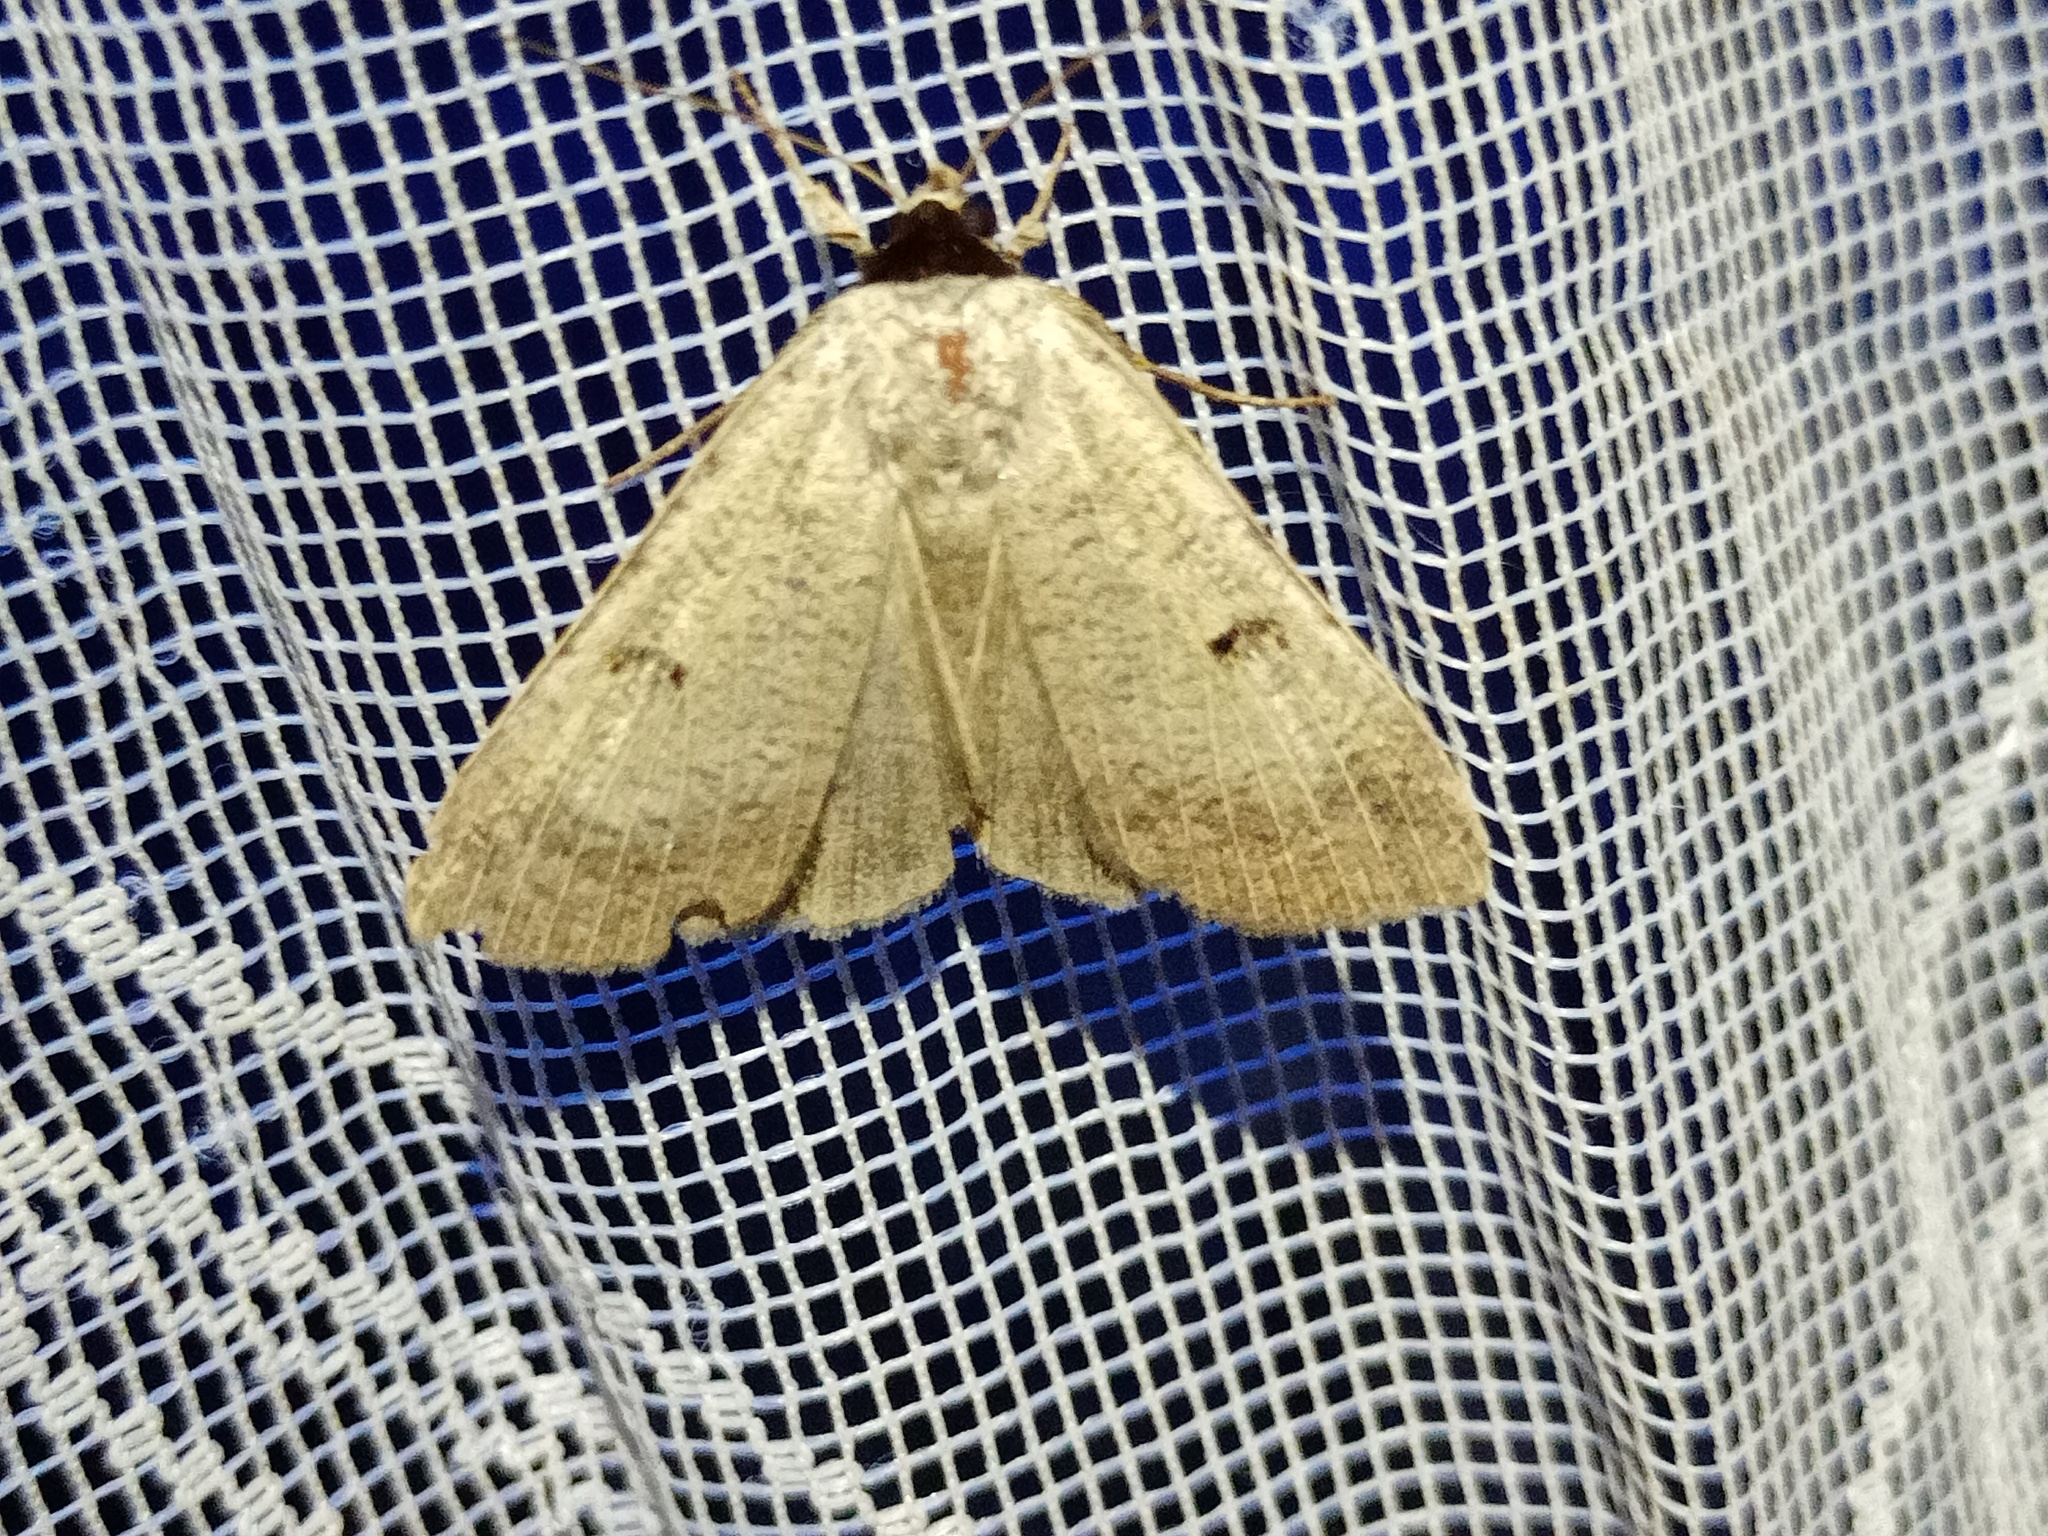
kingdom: Animalia
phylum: Arthropoda
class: Insecta
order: Lepidoptera
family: Erebidae
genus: Lygephila
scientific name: Lygephila craccae
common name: Scarce blackneck
